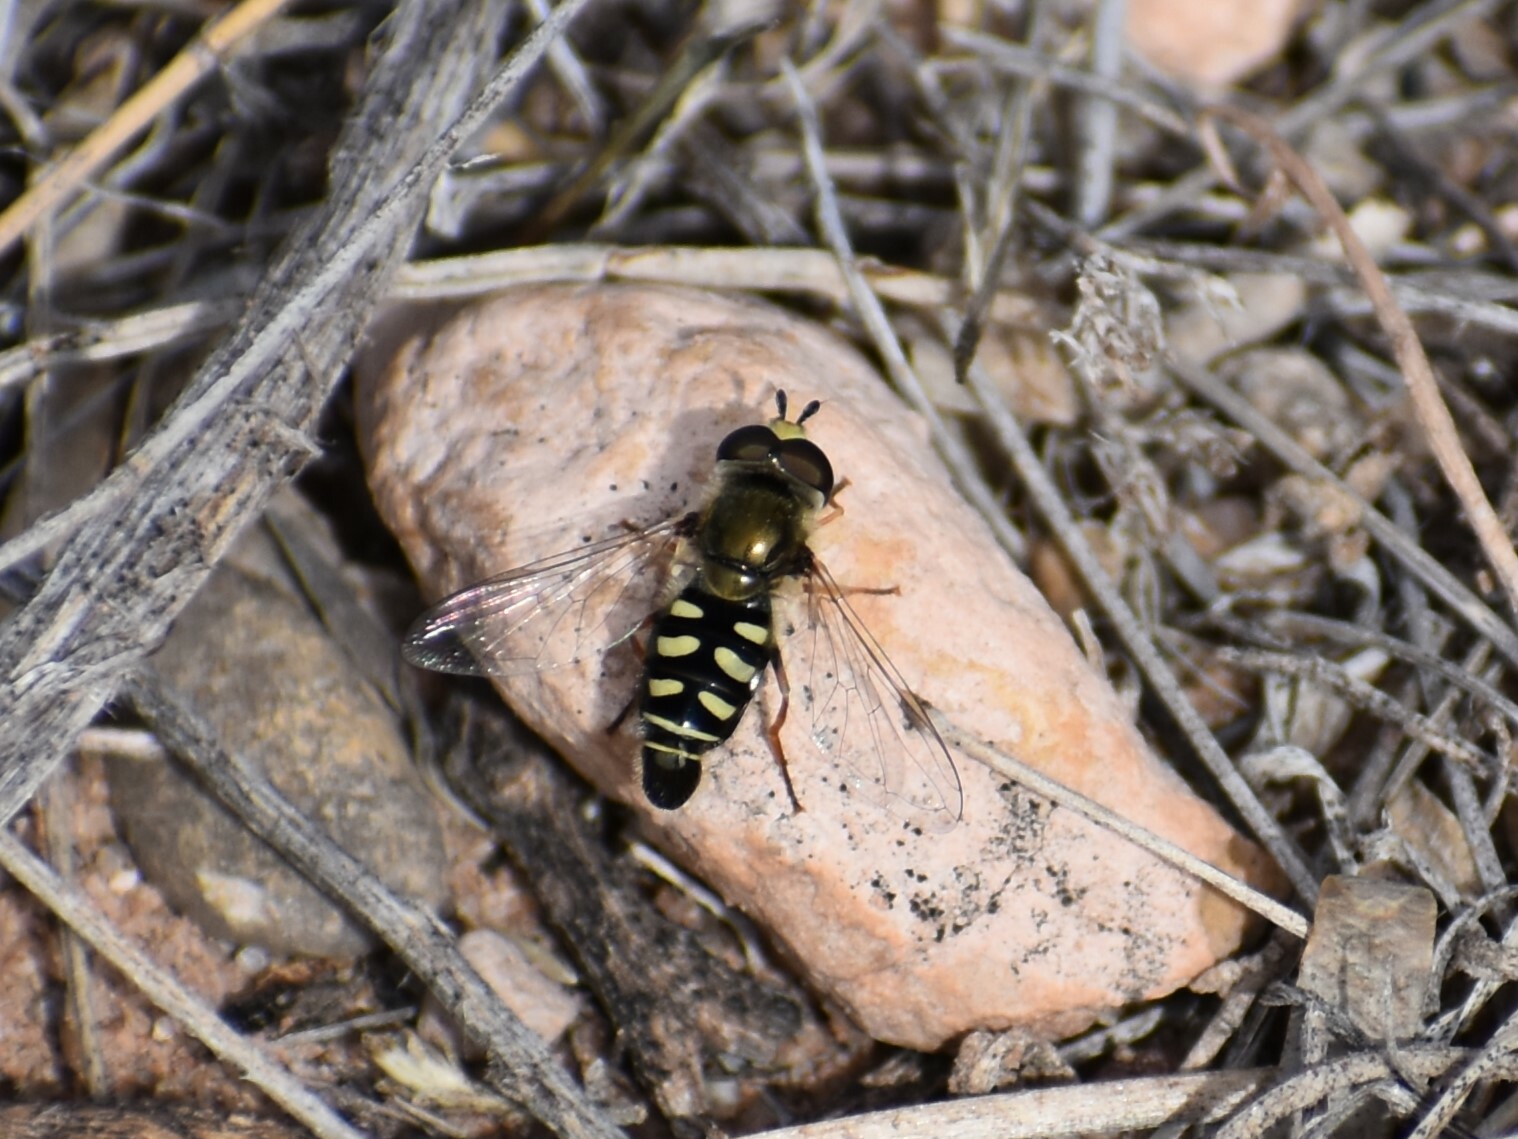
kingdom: Animalia
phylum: Arthropoda
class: Insecta
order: Diptera
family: Syrphidae
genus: Eupeodes
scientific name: Eupeodes volucris
